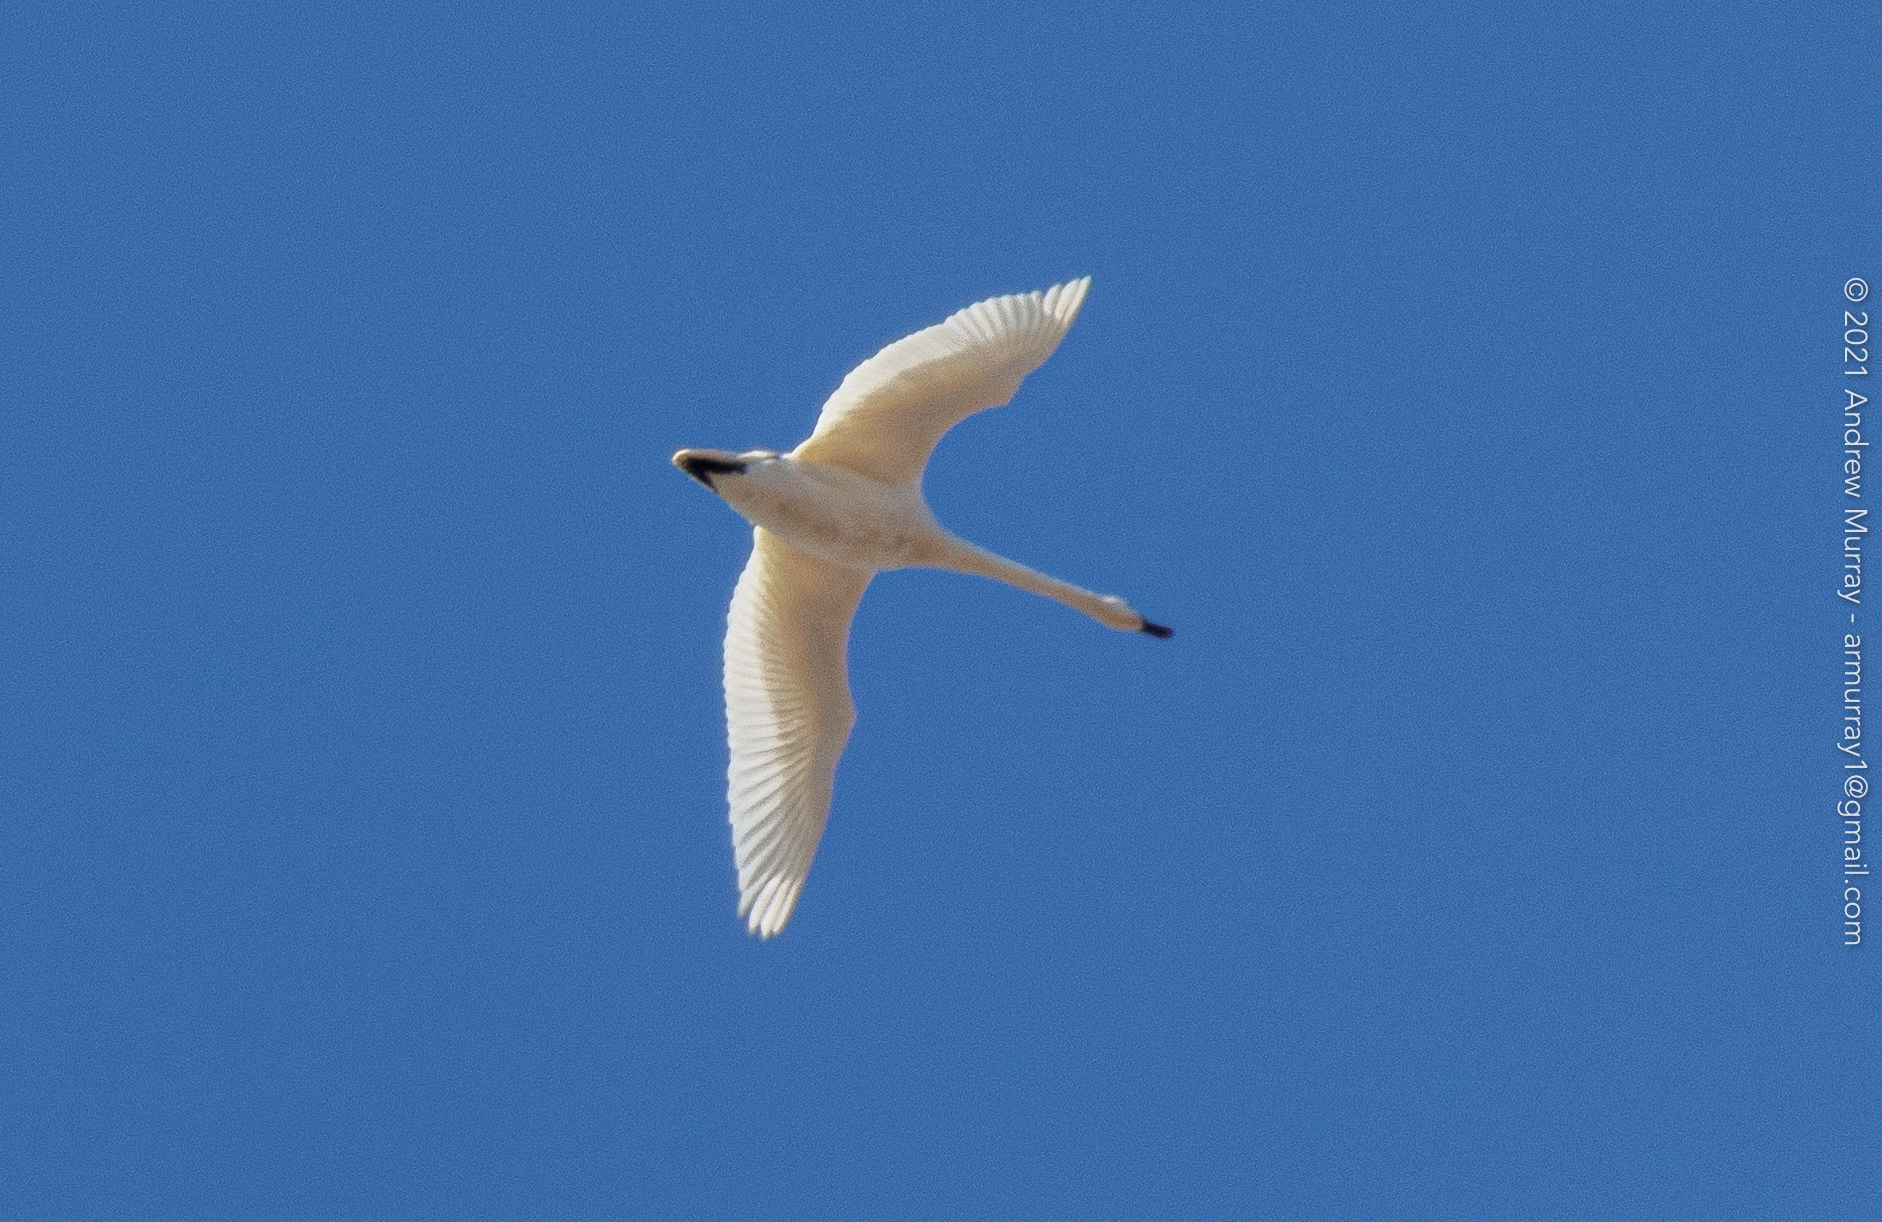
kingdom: Animalia
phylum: Chordata
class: Aves
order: Anseriformes
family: Anatidae
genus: Cygnus
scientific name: Cygnus columbianus
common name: Tundra swan
